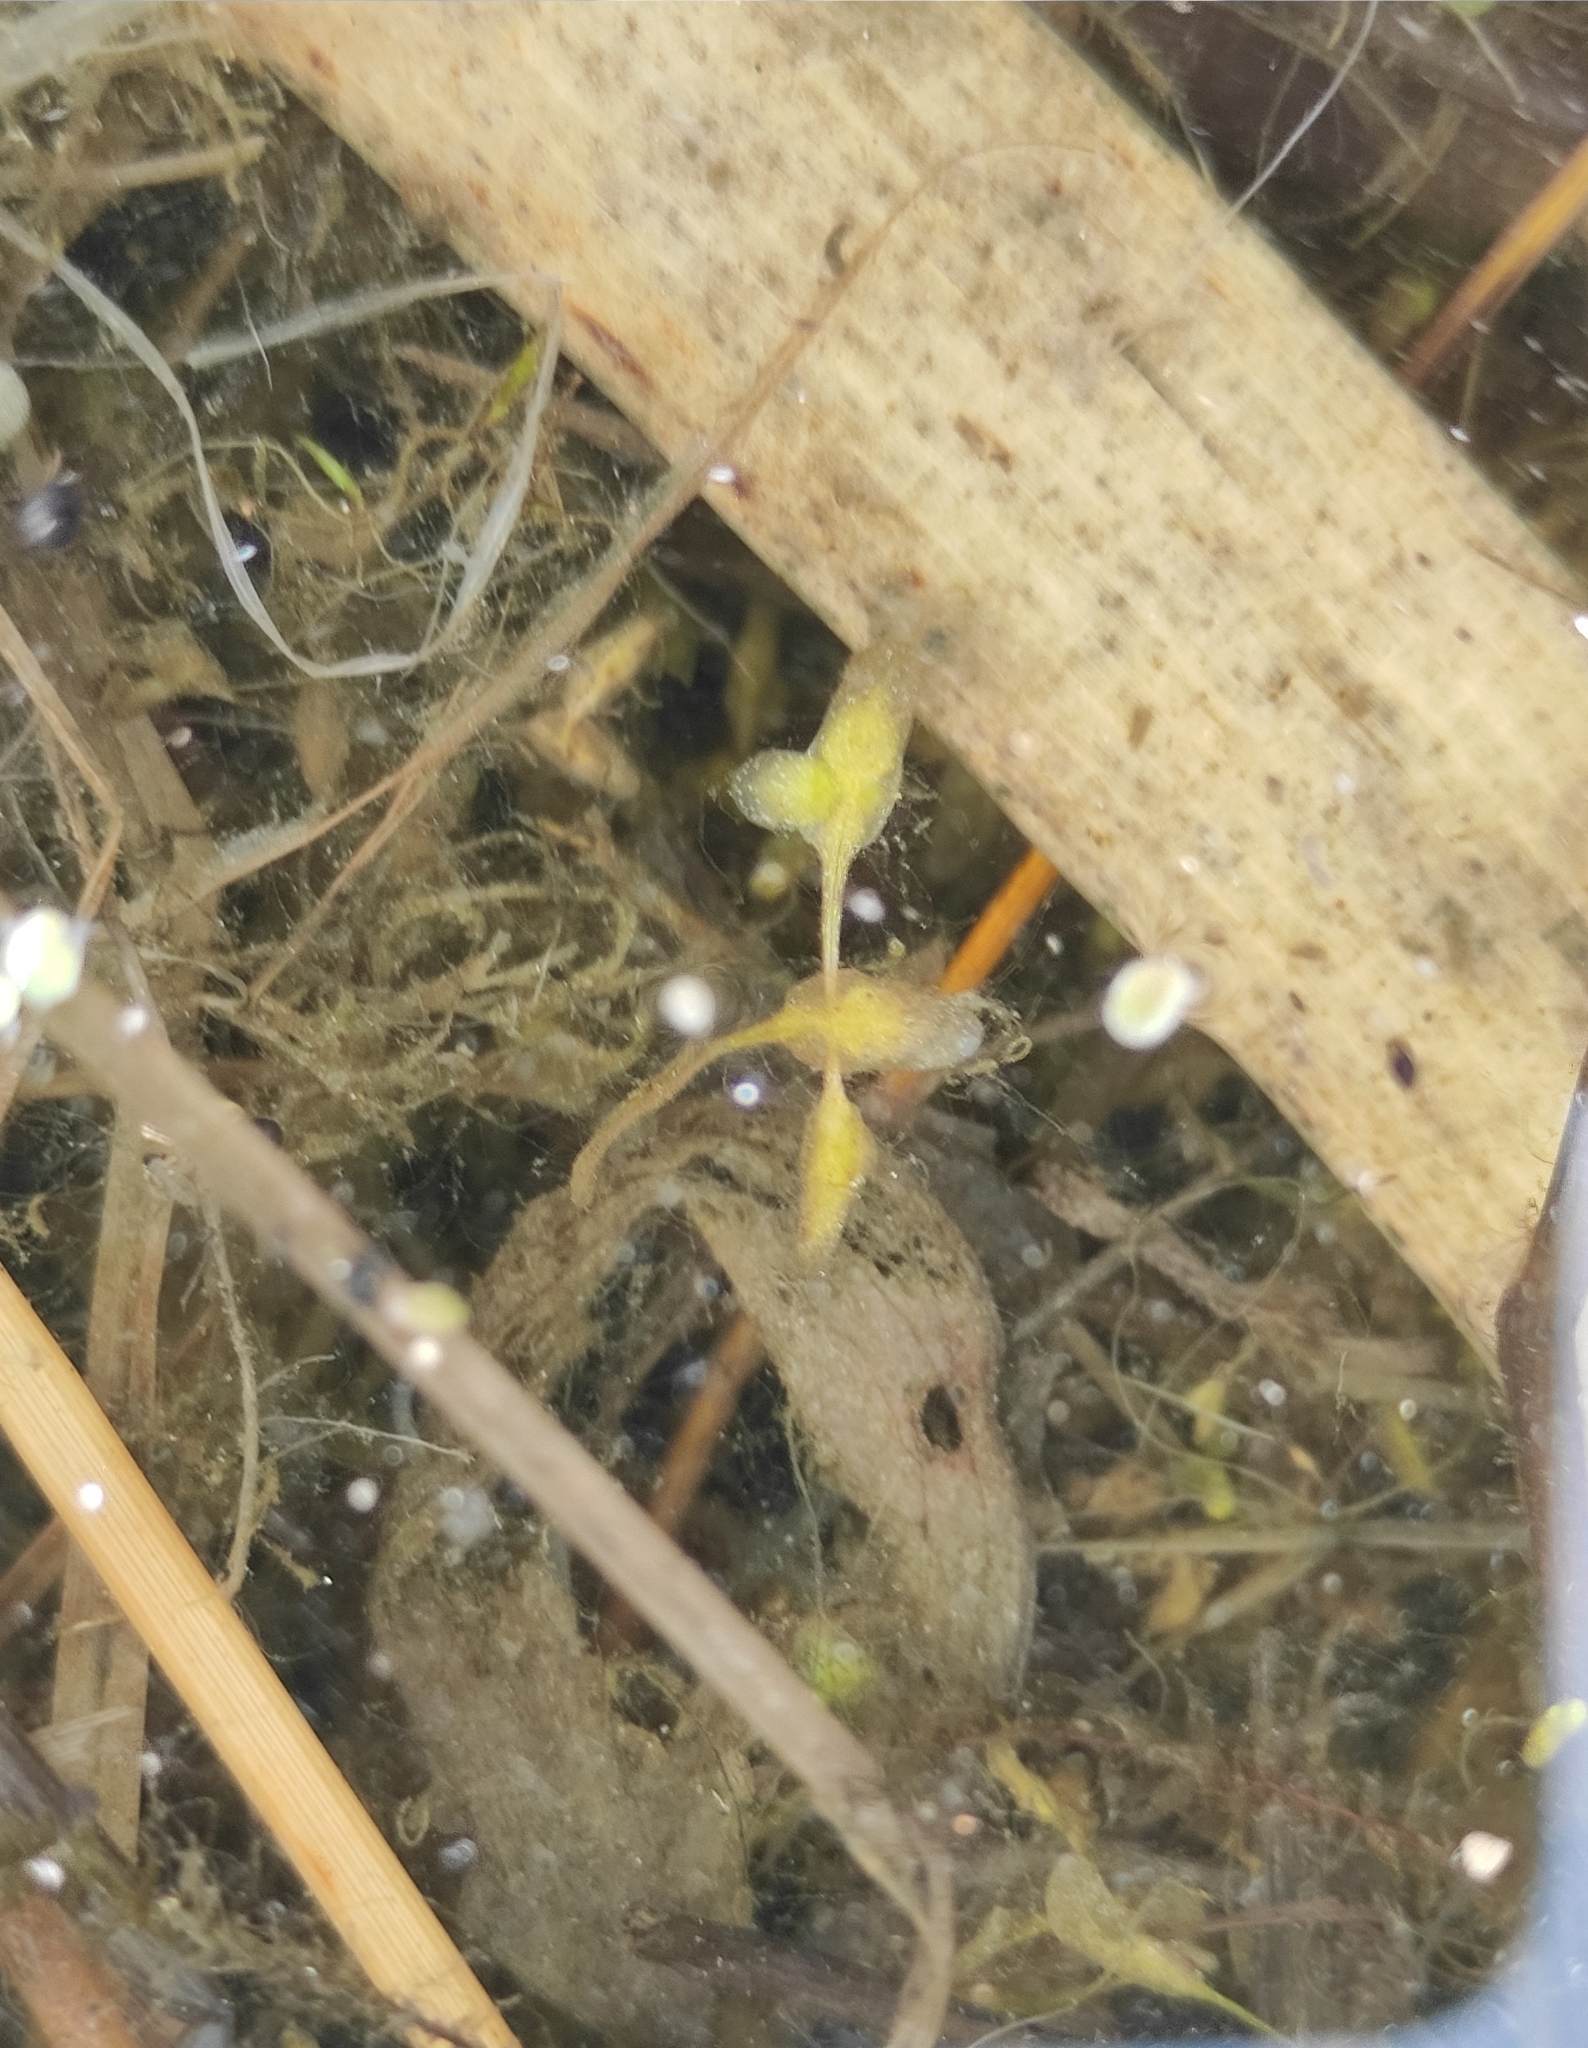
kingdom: Plantae
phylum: Tracheophyta
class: Liliopsida
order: Alismatales
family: Araceae
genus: Lemna
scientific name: Lemna trisulca
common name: Ivy-leaved duckweed
